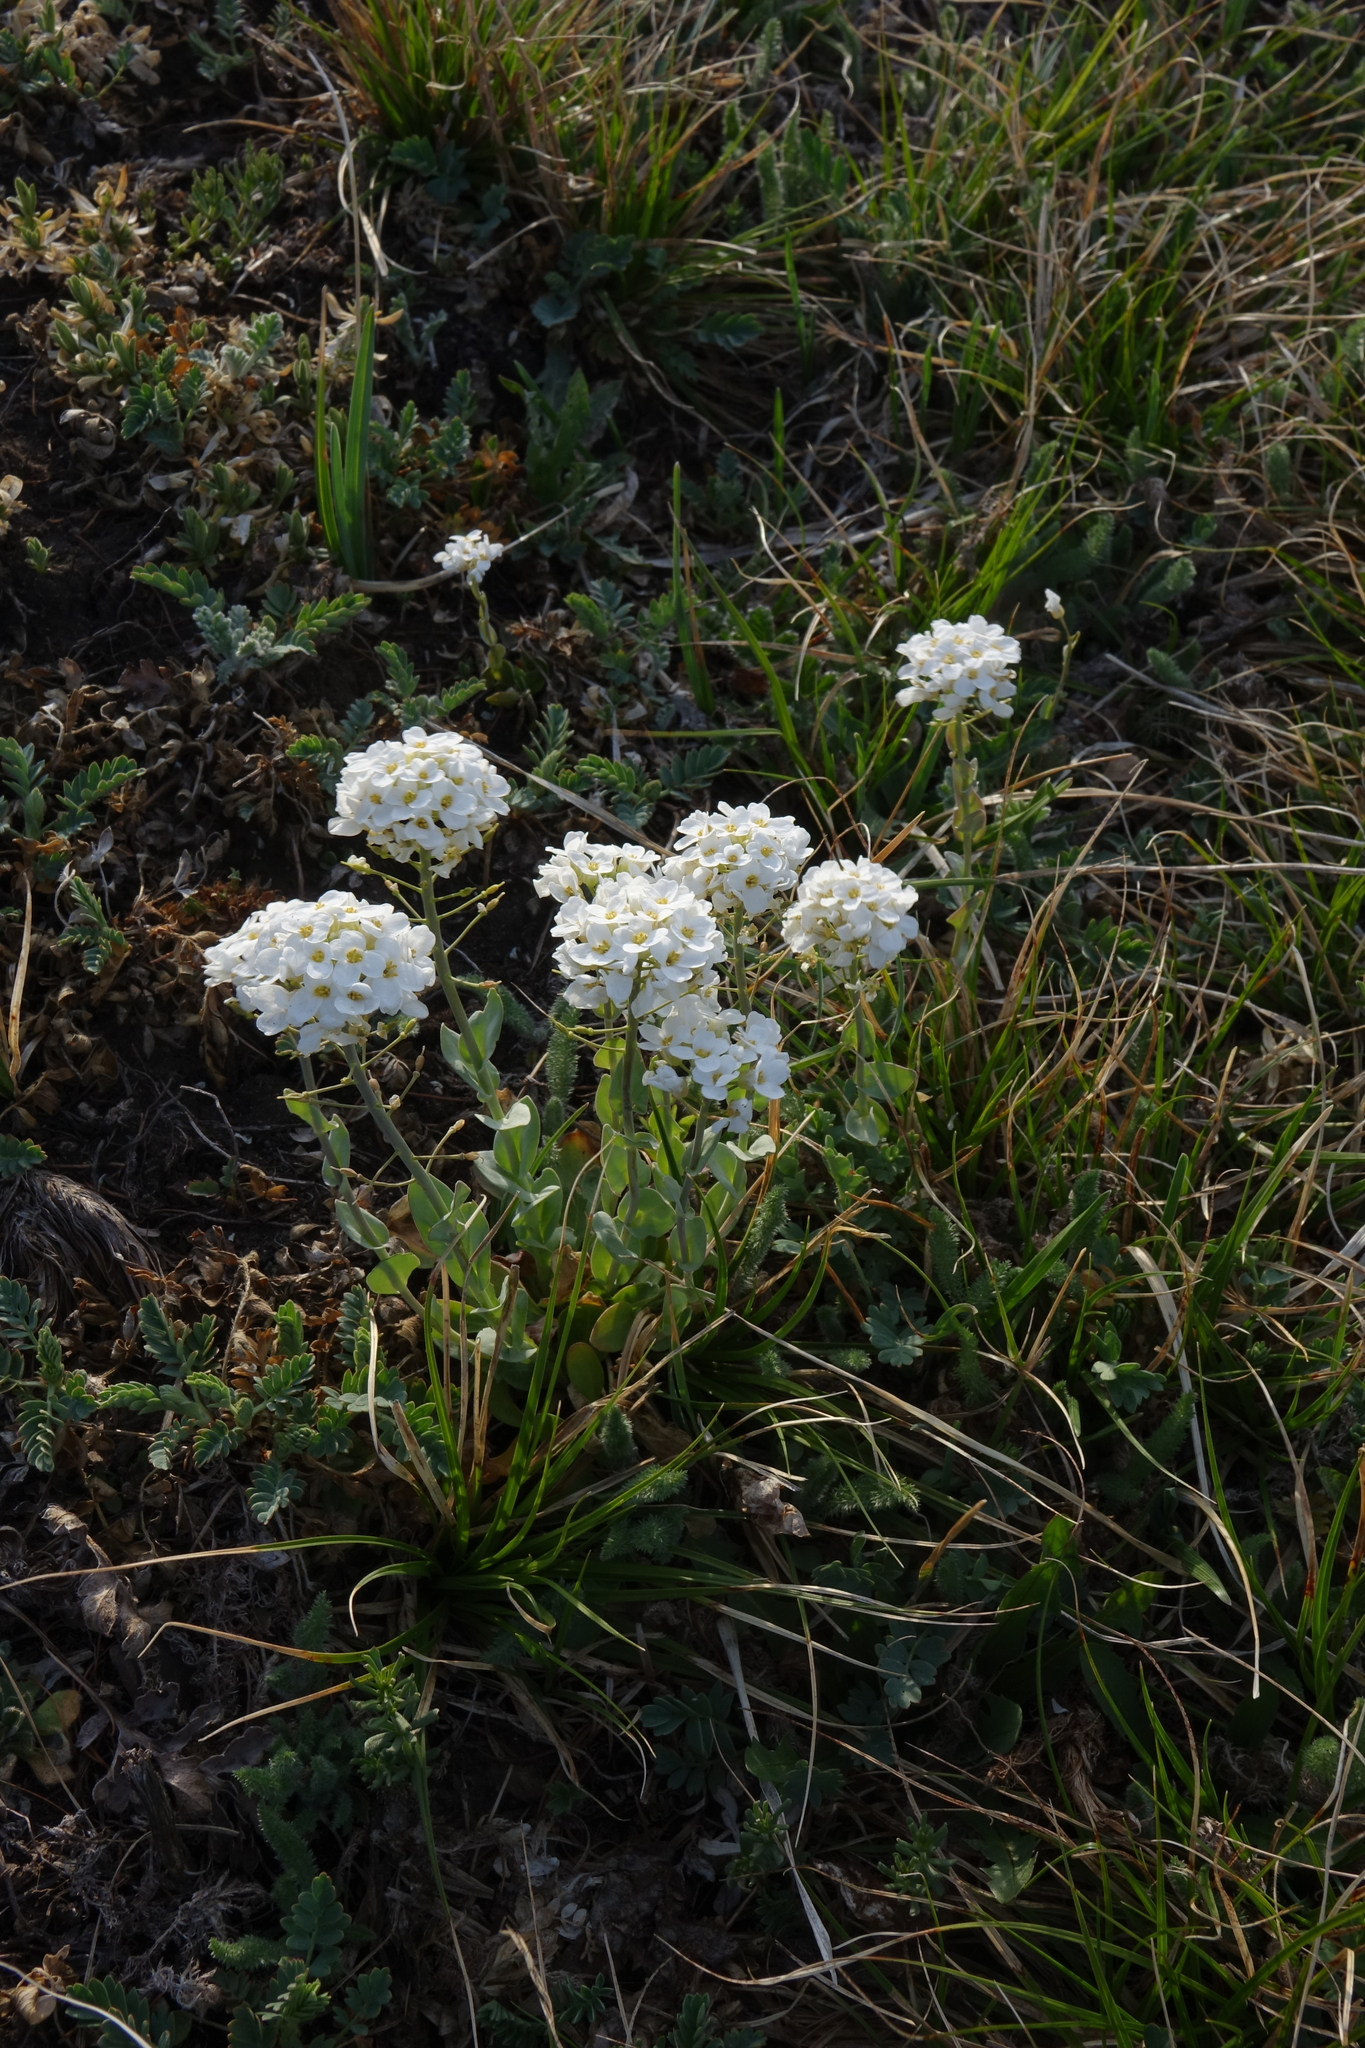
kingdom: Plantae
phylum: Tracheophyta
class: Magnoliopsida
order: Brassicales
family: Brassicaceae
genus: Noccaea
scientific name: Noccaea thlaspidioides
